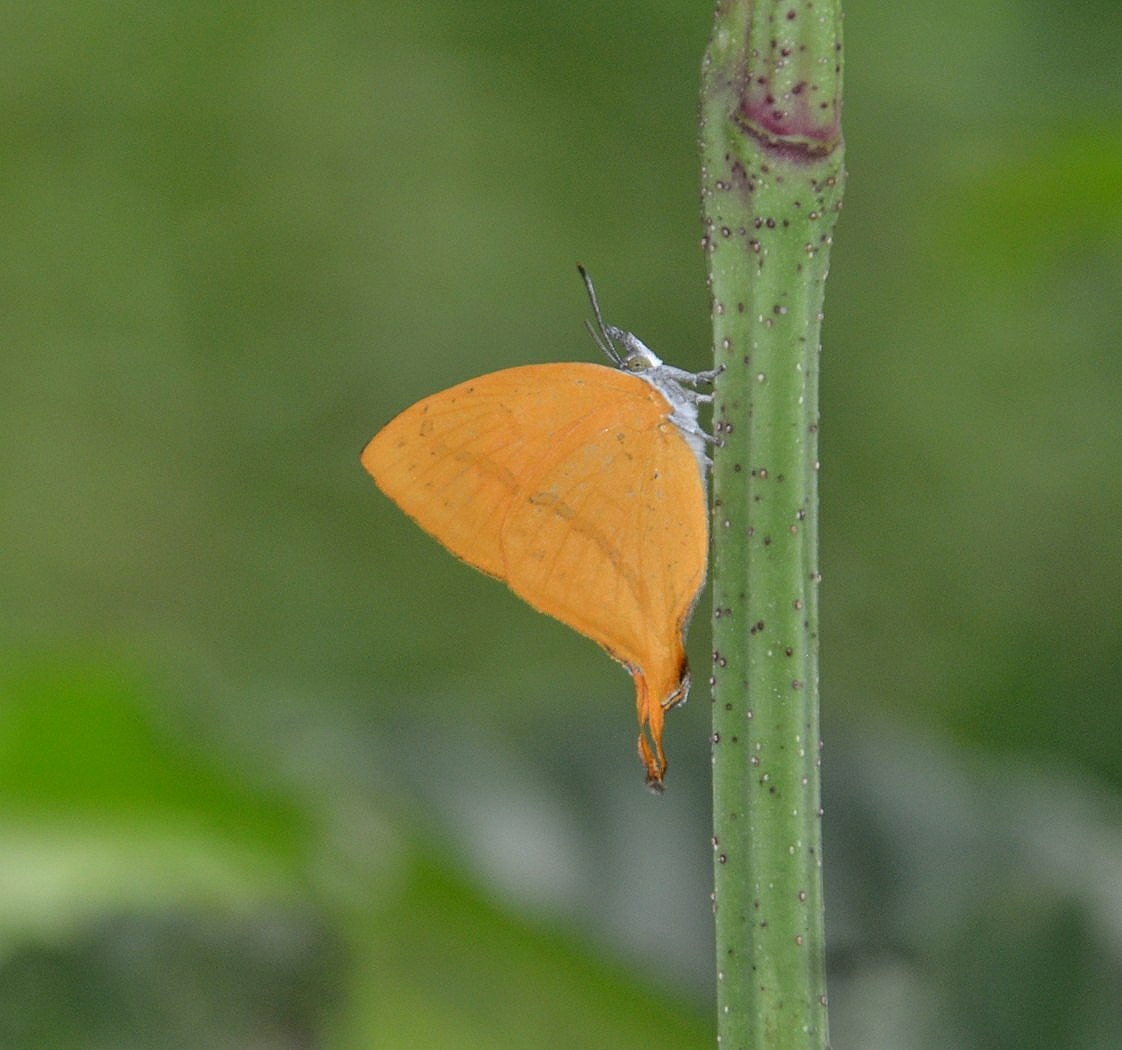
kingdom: Animalia
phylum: Arthropoda
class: Insecta
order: Lepidoptera
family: Lycaenidae
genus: Loxura
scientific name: Loxura atymnus
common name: Common yamfly
